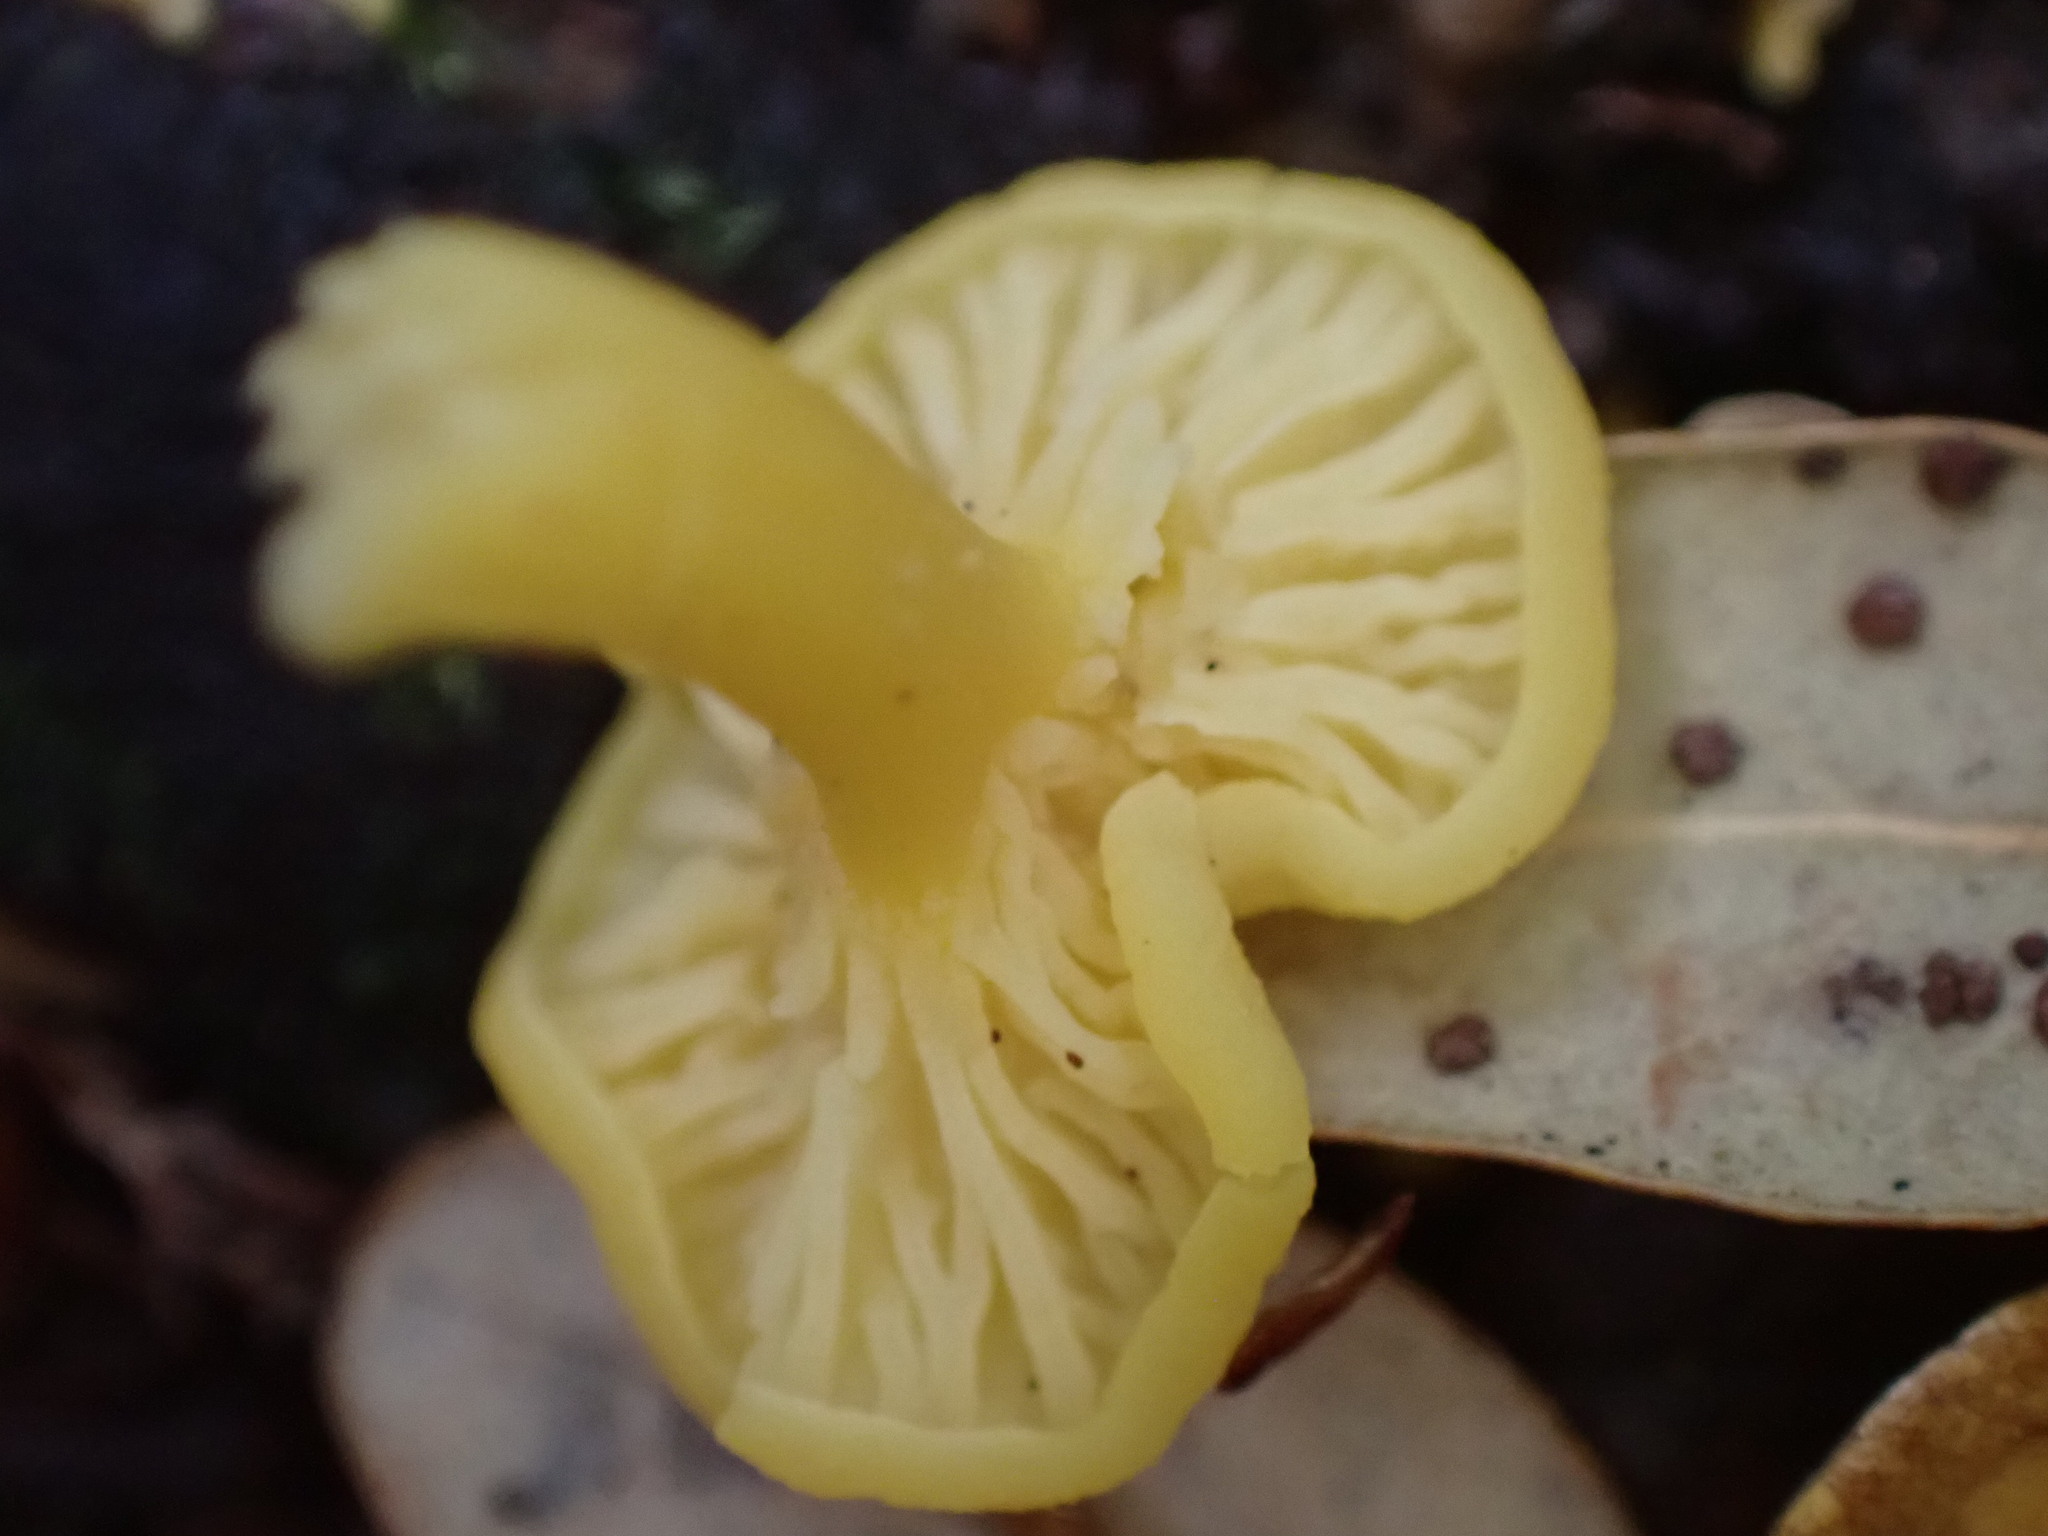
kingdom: Fungi
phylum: Basidiomycota
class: Agaricomycetes
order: Cantharellales
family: Hydnaceae
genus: Cantharellus
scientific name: Cantharellus wellingtonensis
